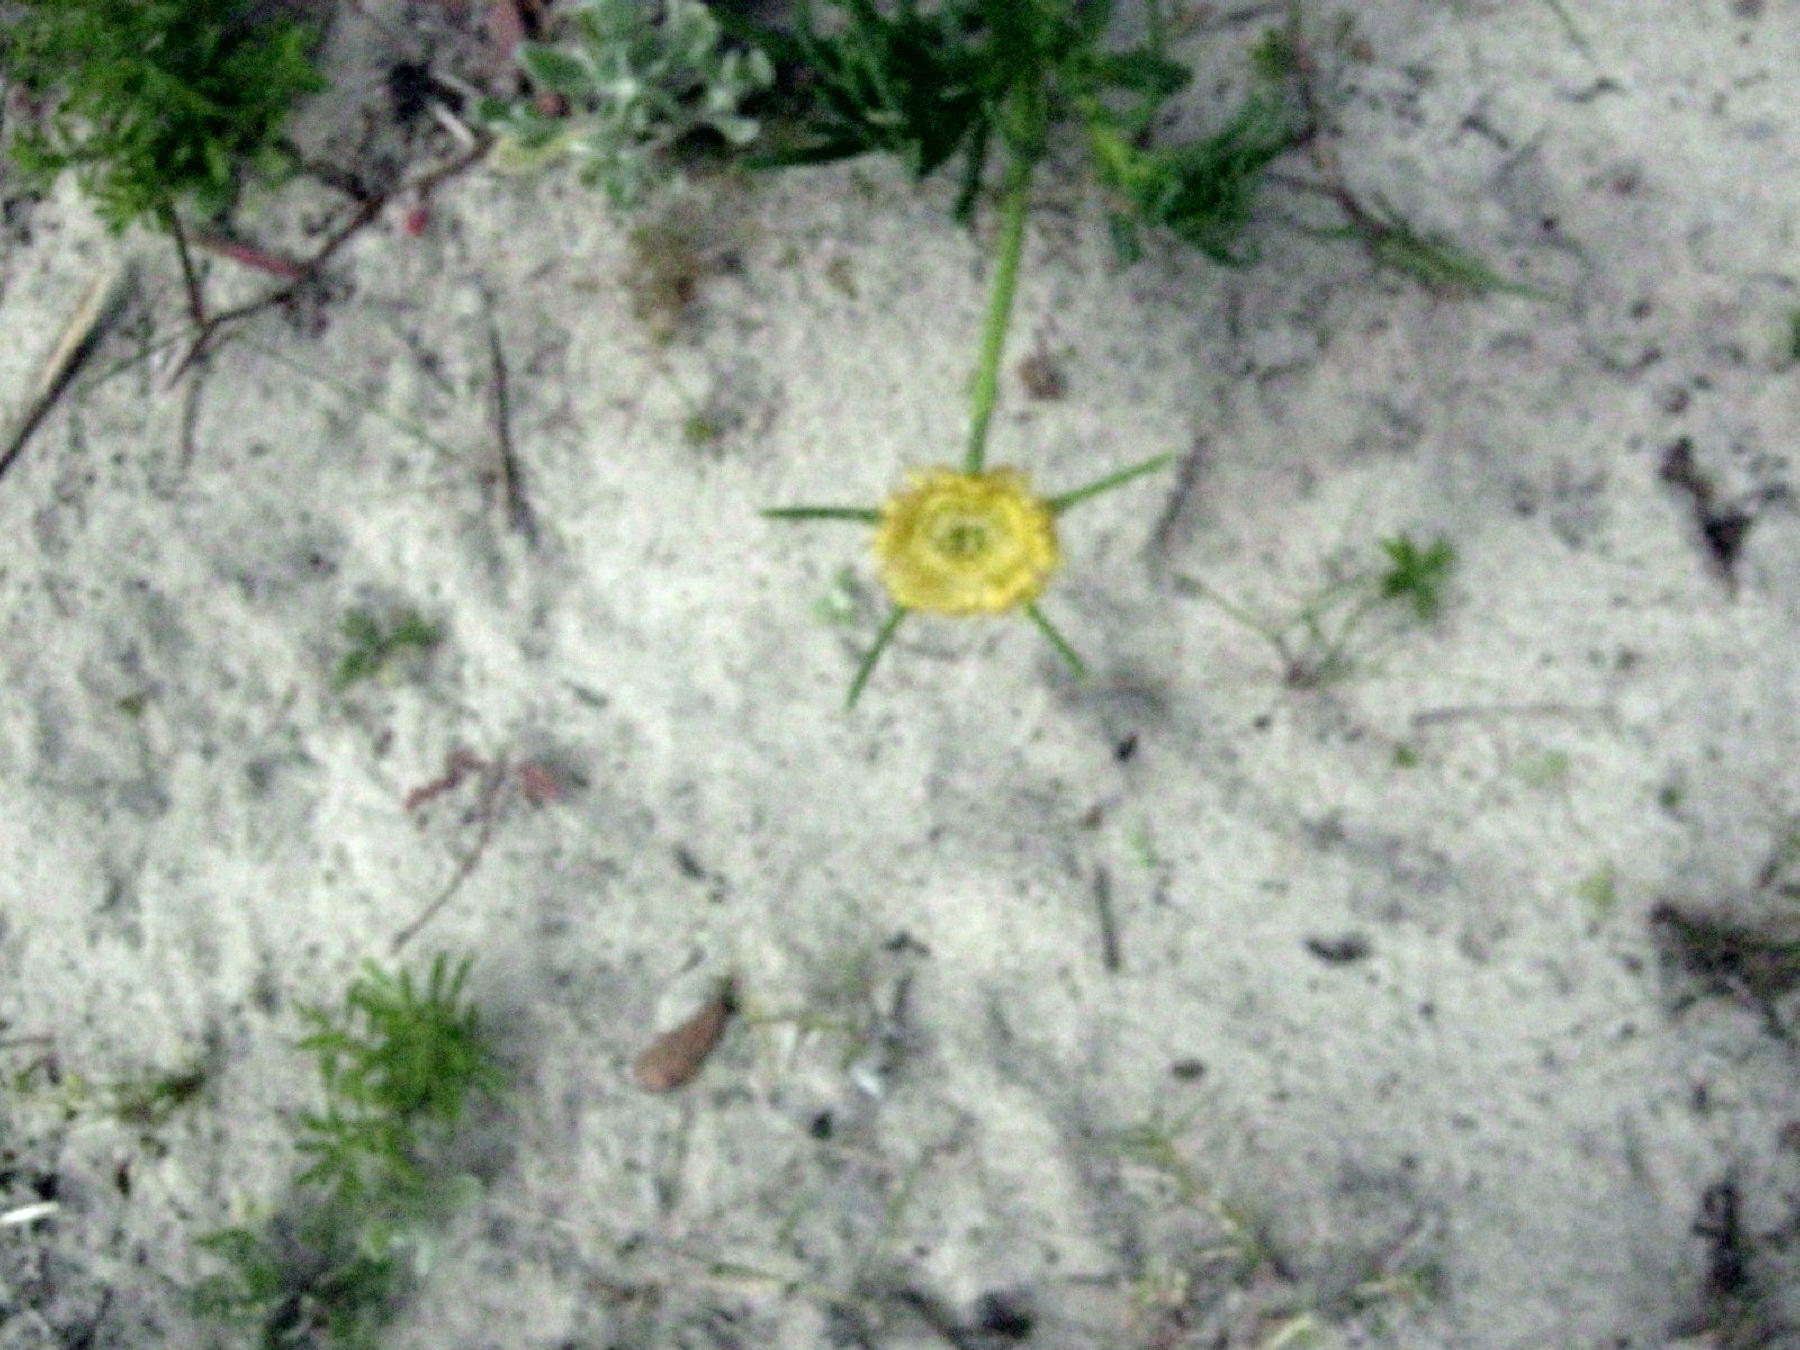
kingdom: Plantae
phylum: Tracheophyta
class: Magnoliopsida
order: Caryophyllales
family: Aizoaceae
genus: Conicosia
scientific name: Conicosia pugioniformis
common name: Narrow-leaved iceplant
